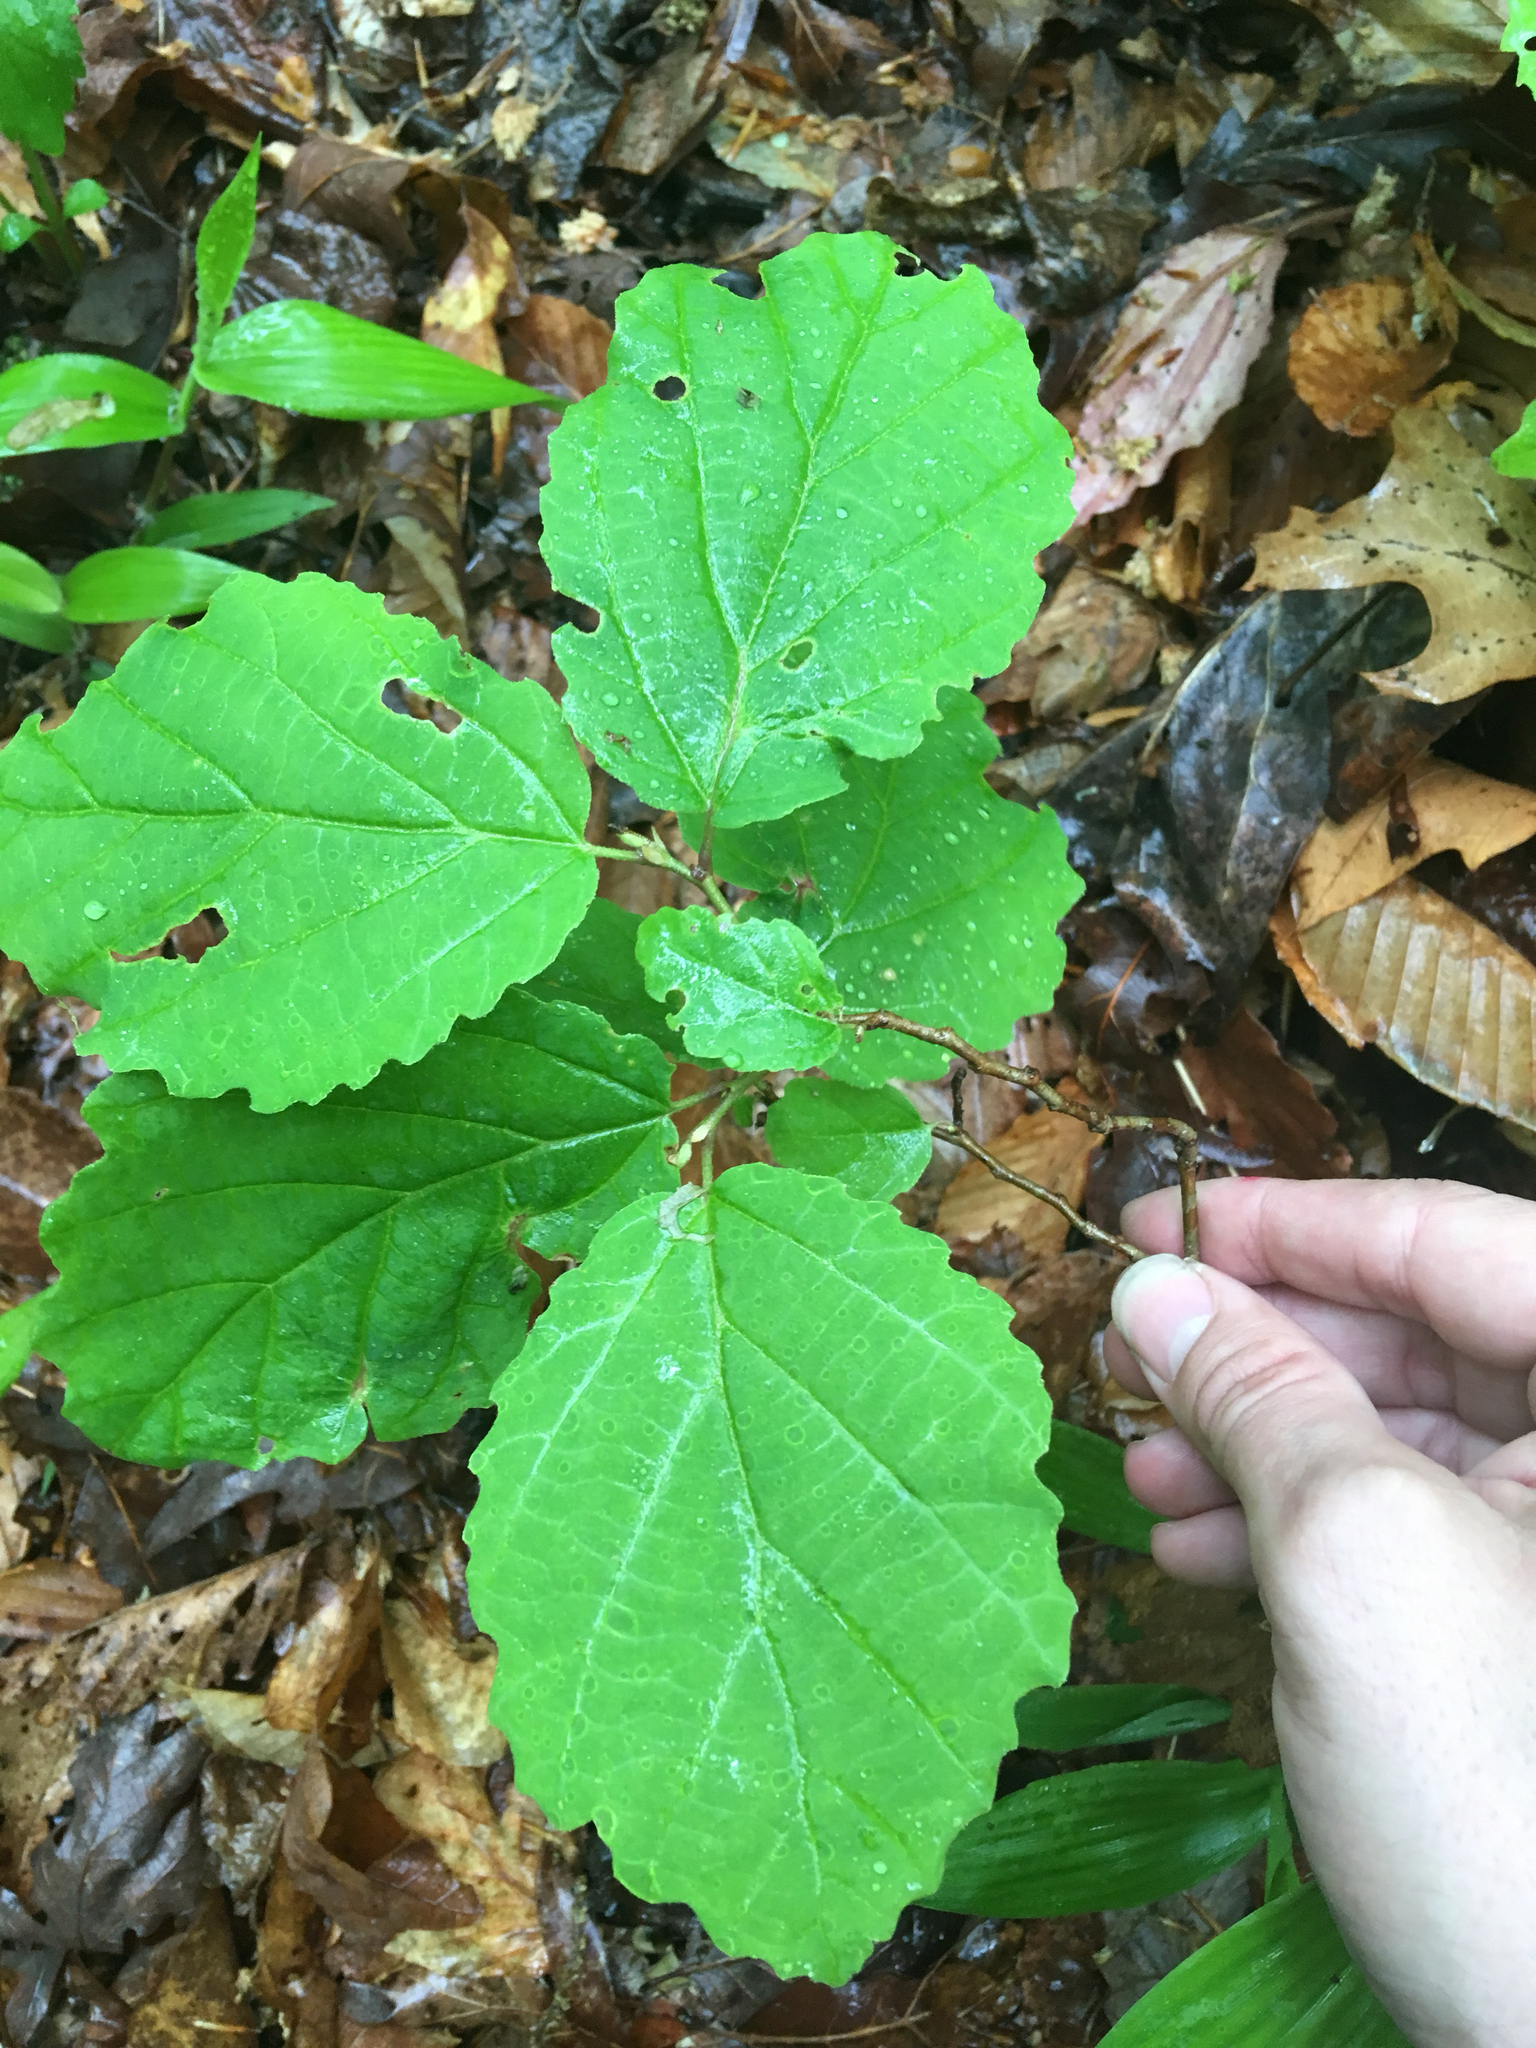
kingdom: Plantae
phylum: Tracheophyta
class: Magnoliopsida
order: Saxifragales
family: Hamamelidaceae
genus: Hamamelis
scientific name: Hamamelis virginiana
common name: Witch-hazel
